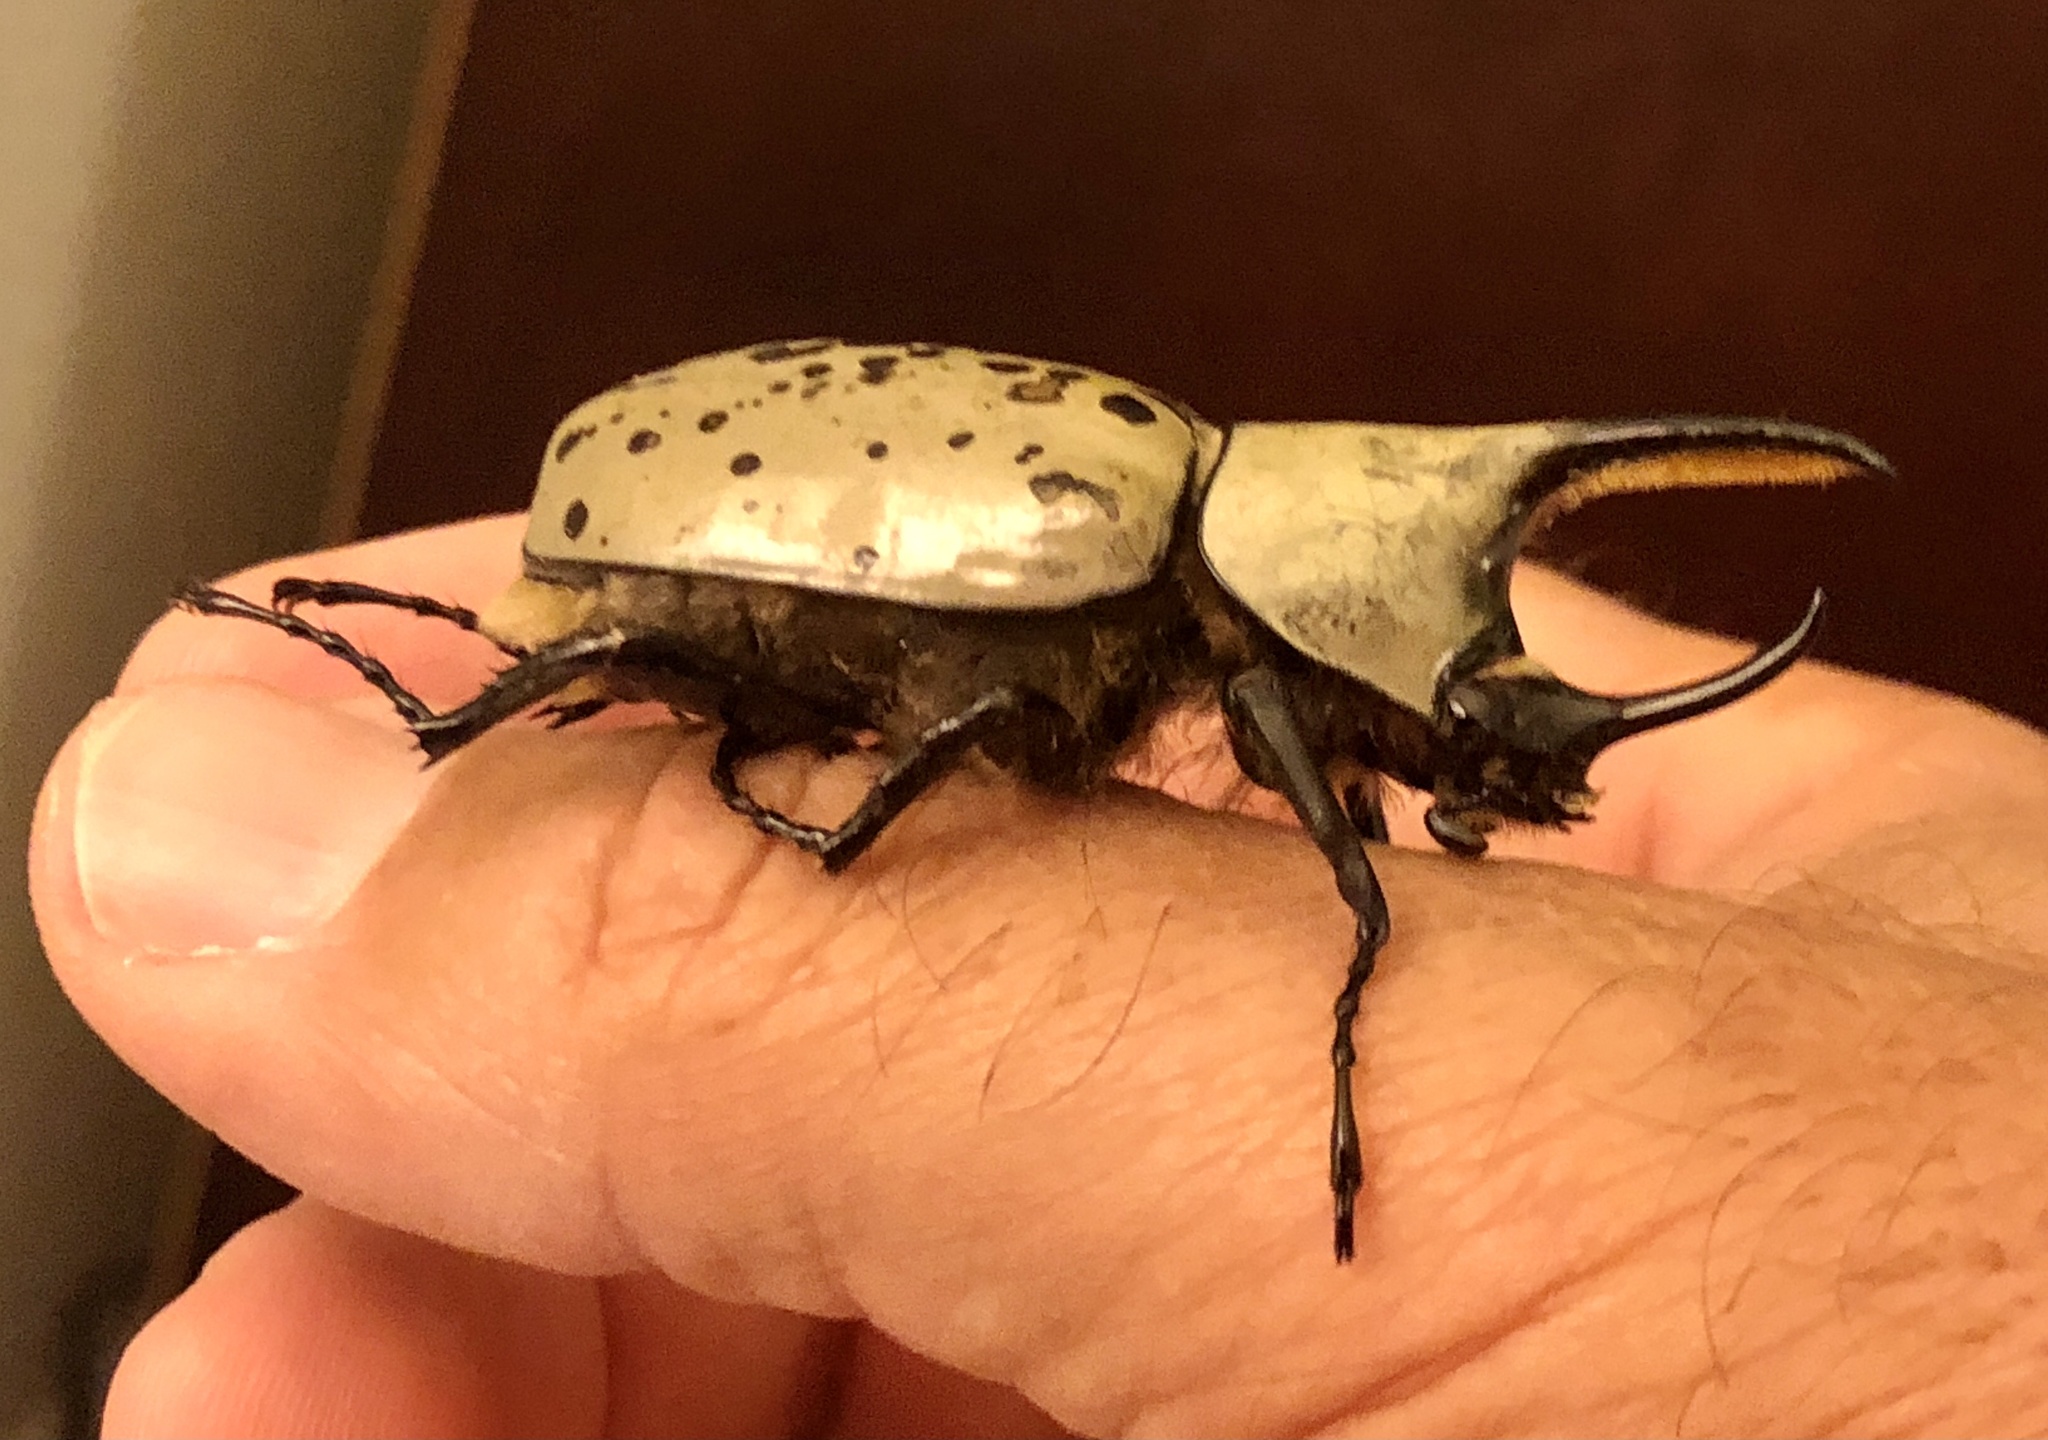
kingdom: Animalia
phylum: Arthropoda
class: Insecta
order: Coleoptera
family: Scarabaeidae
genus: Dynastes
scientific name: Dynastes grantii
